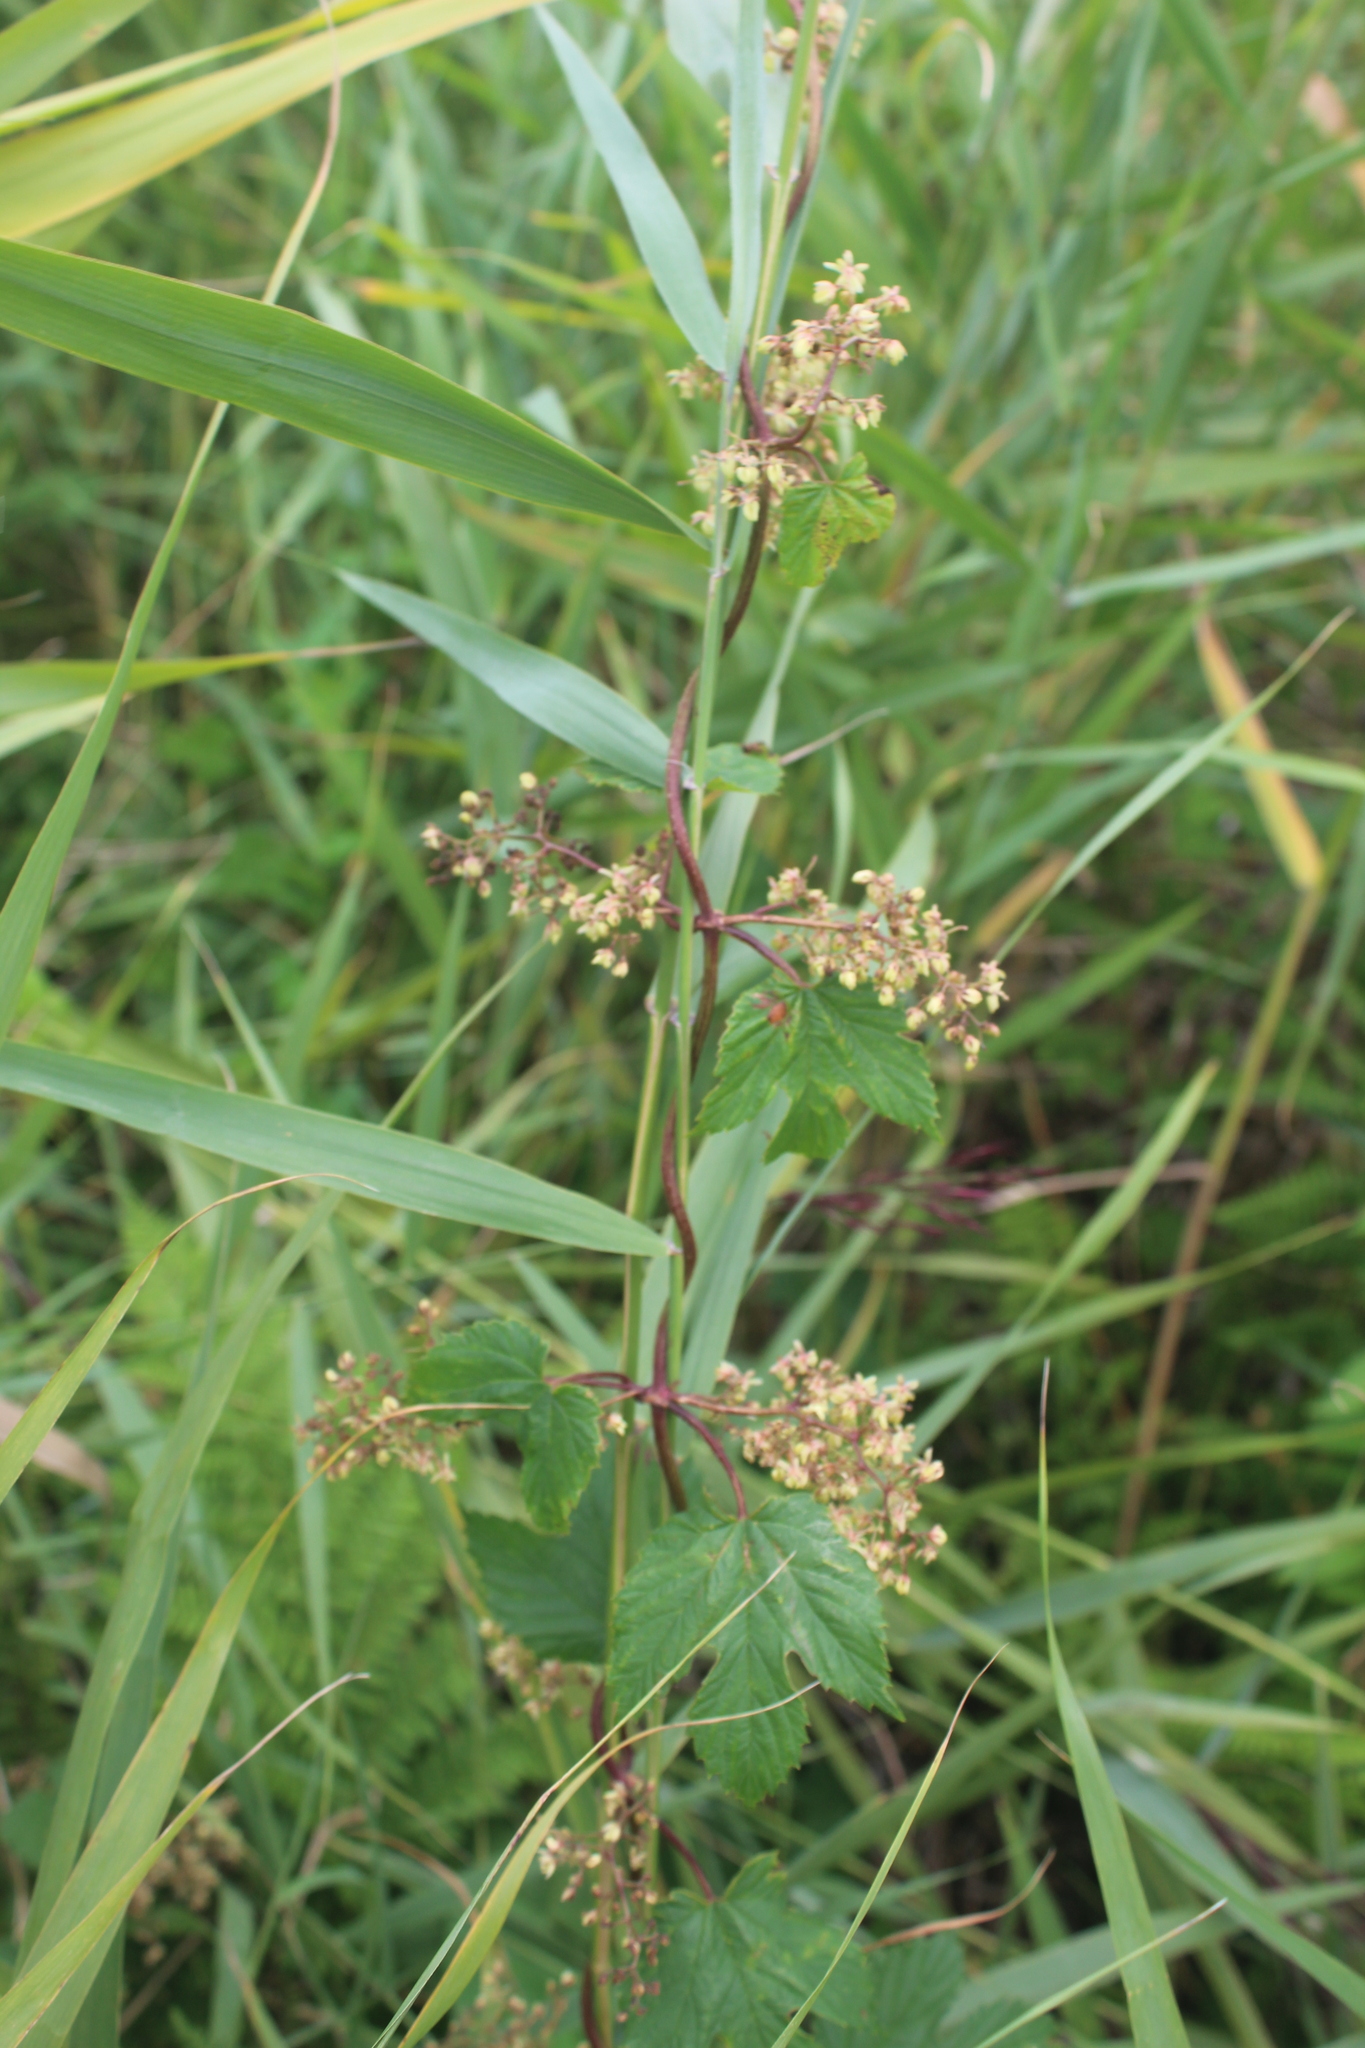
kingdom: Plantae
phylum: Tracheophyta
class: Magnoliopsida
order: Rosales
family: Cannabaceae
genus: Humulus
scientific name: Humulus lupulus
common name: Hop
